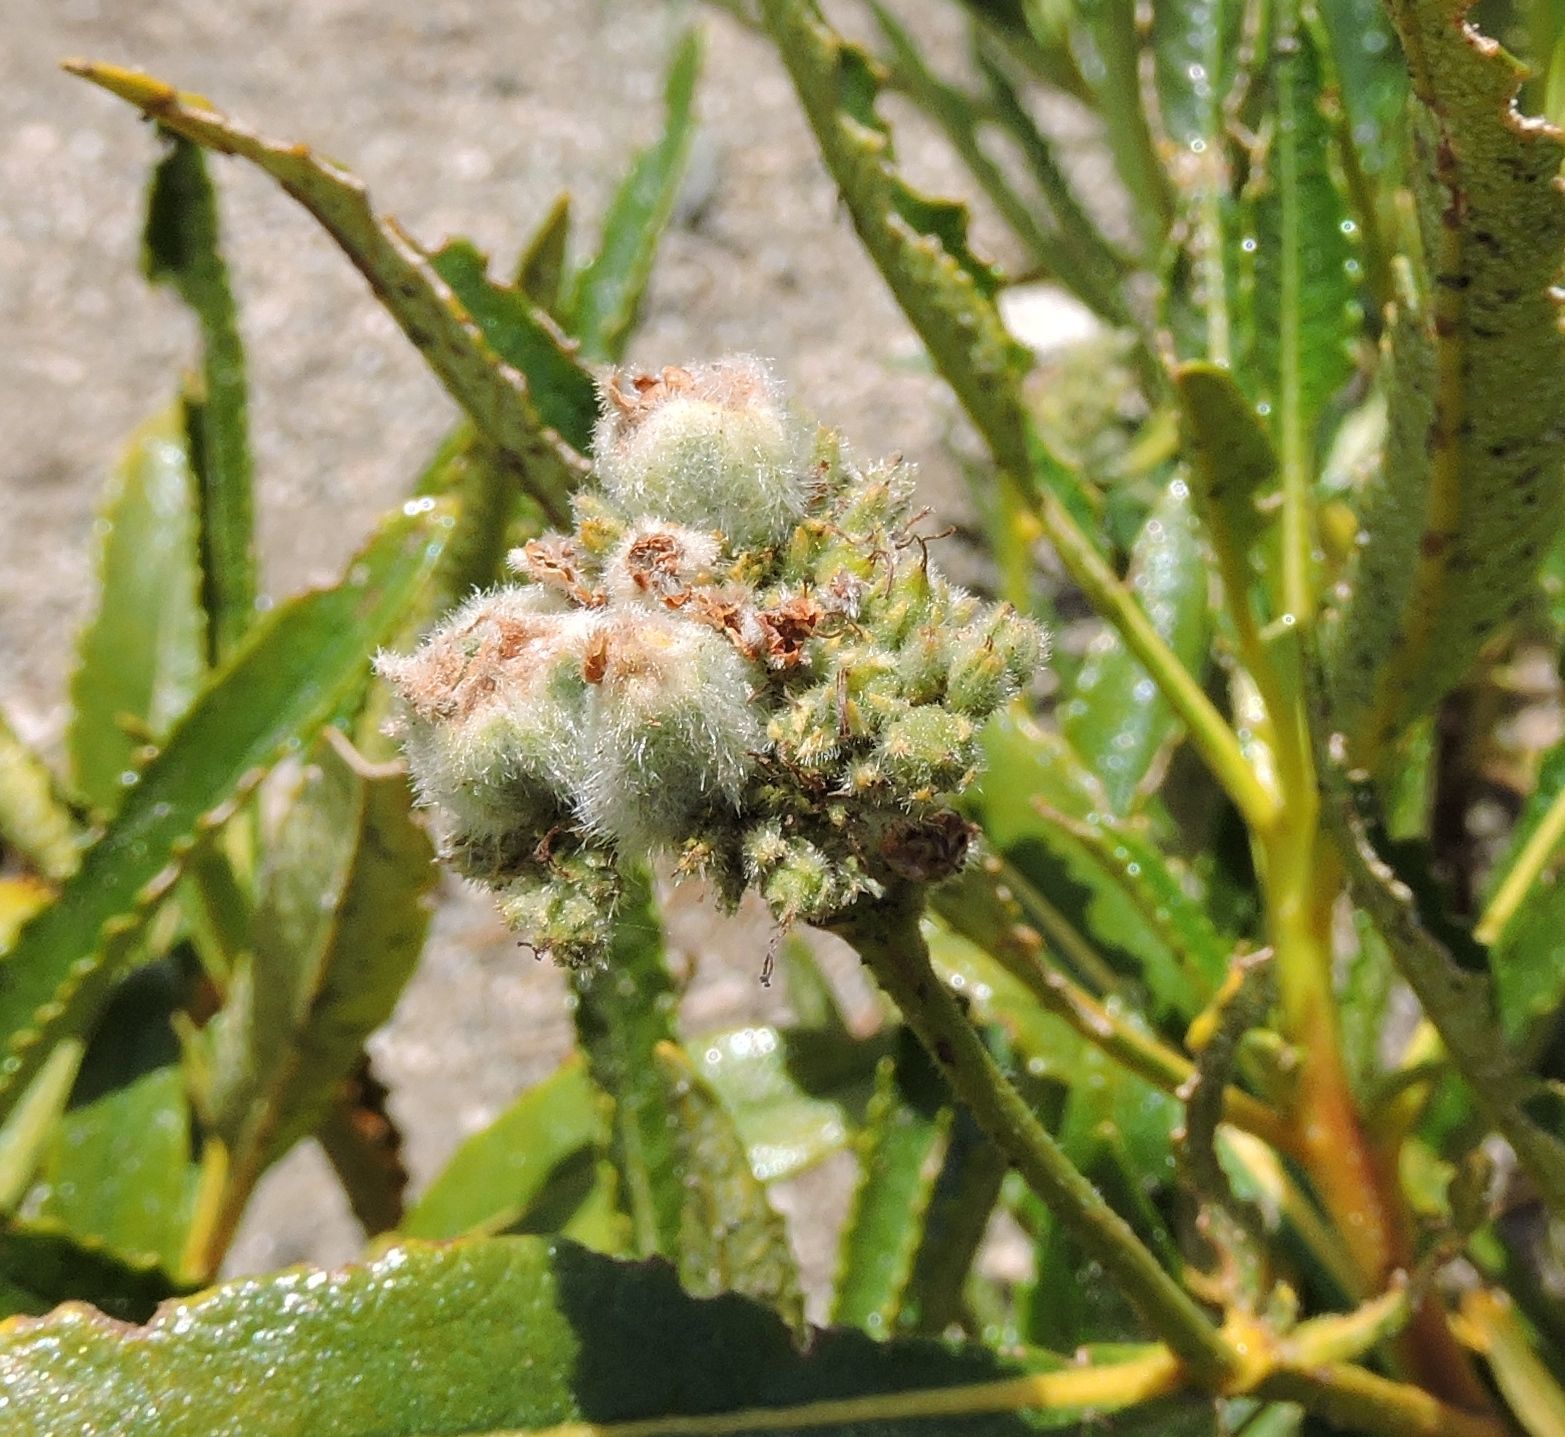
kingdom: Plantae
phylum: Tracheophyta
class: Magnoliopsida
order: Boraginales
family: Namaceae
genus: Eriodictyon
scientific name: Eriodictyon trichocalyx
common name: Hairy yerba-santa
